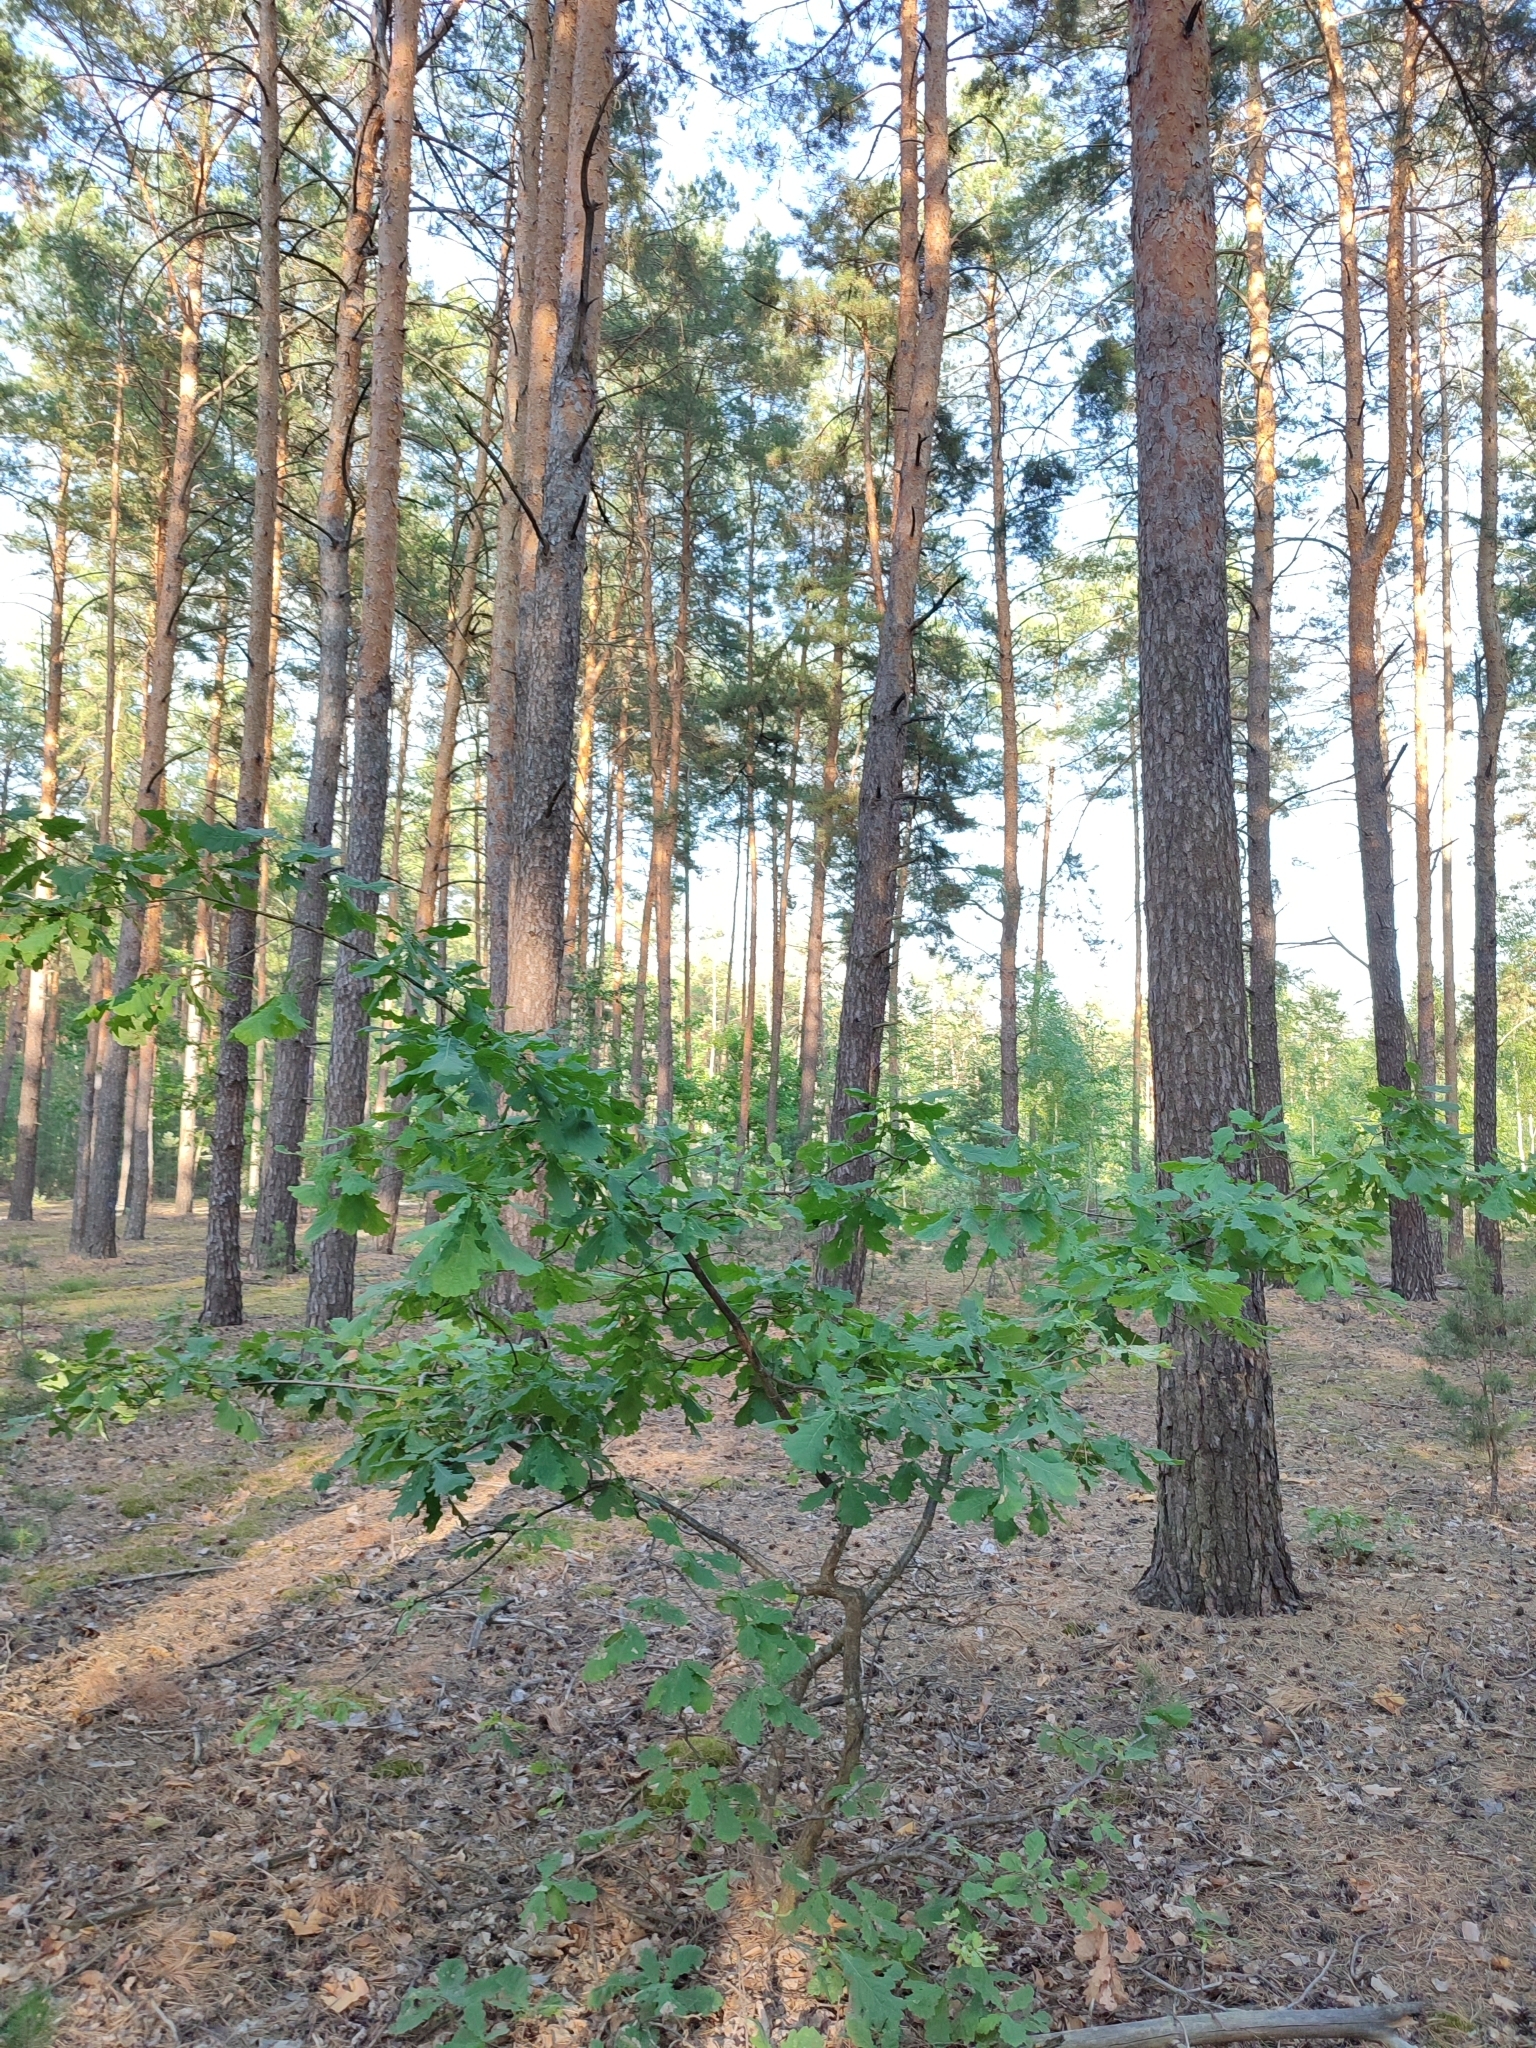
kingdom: Plantae
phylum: Tracheophyta
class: Magnoliopsida
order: Fagales
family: Fagaceae
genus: Quercus
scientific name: Quercus robur
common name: Pedunculate oak
